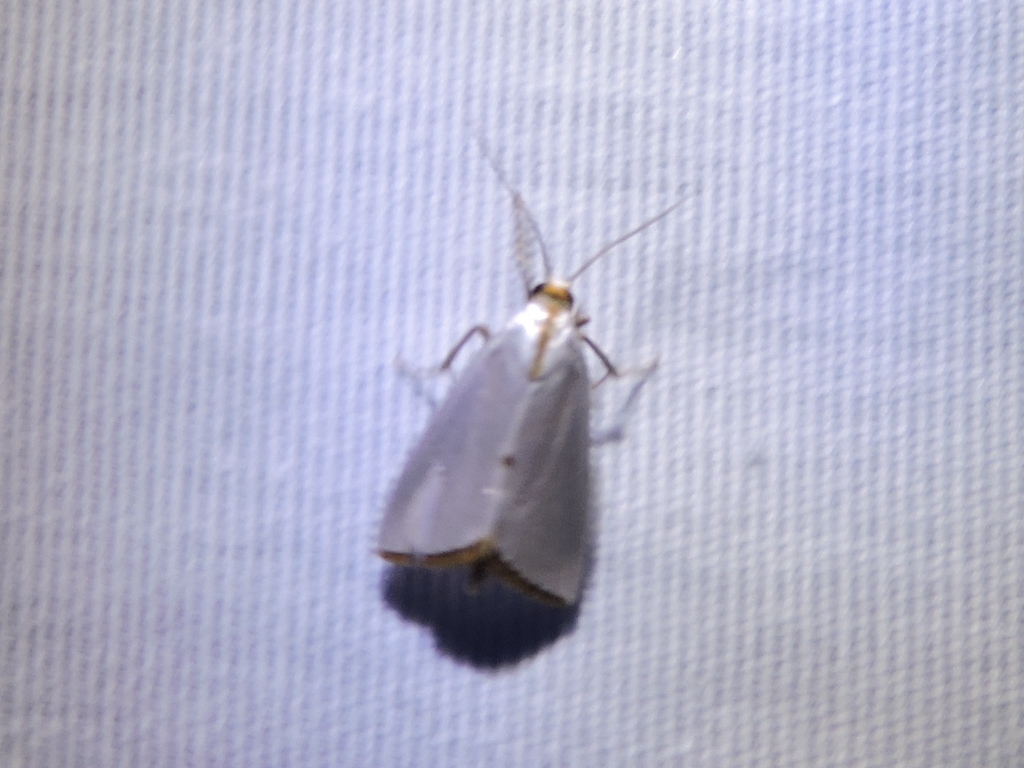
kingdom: Animalia
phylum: Arthropoda
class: Insecta
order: Lepidoptera
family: Crambidae
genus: Argyria
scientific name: Argyria nivalis
